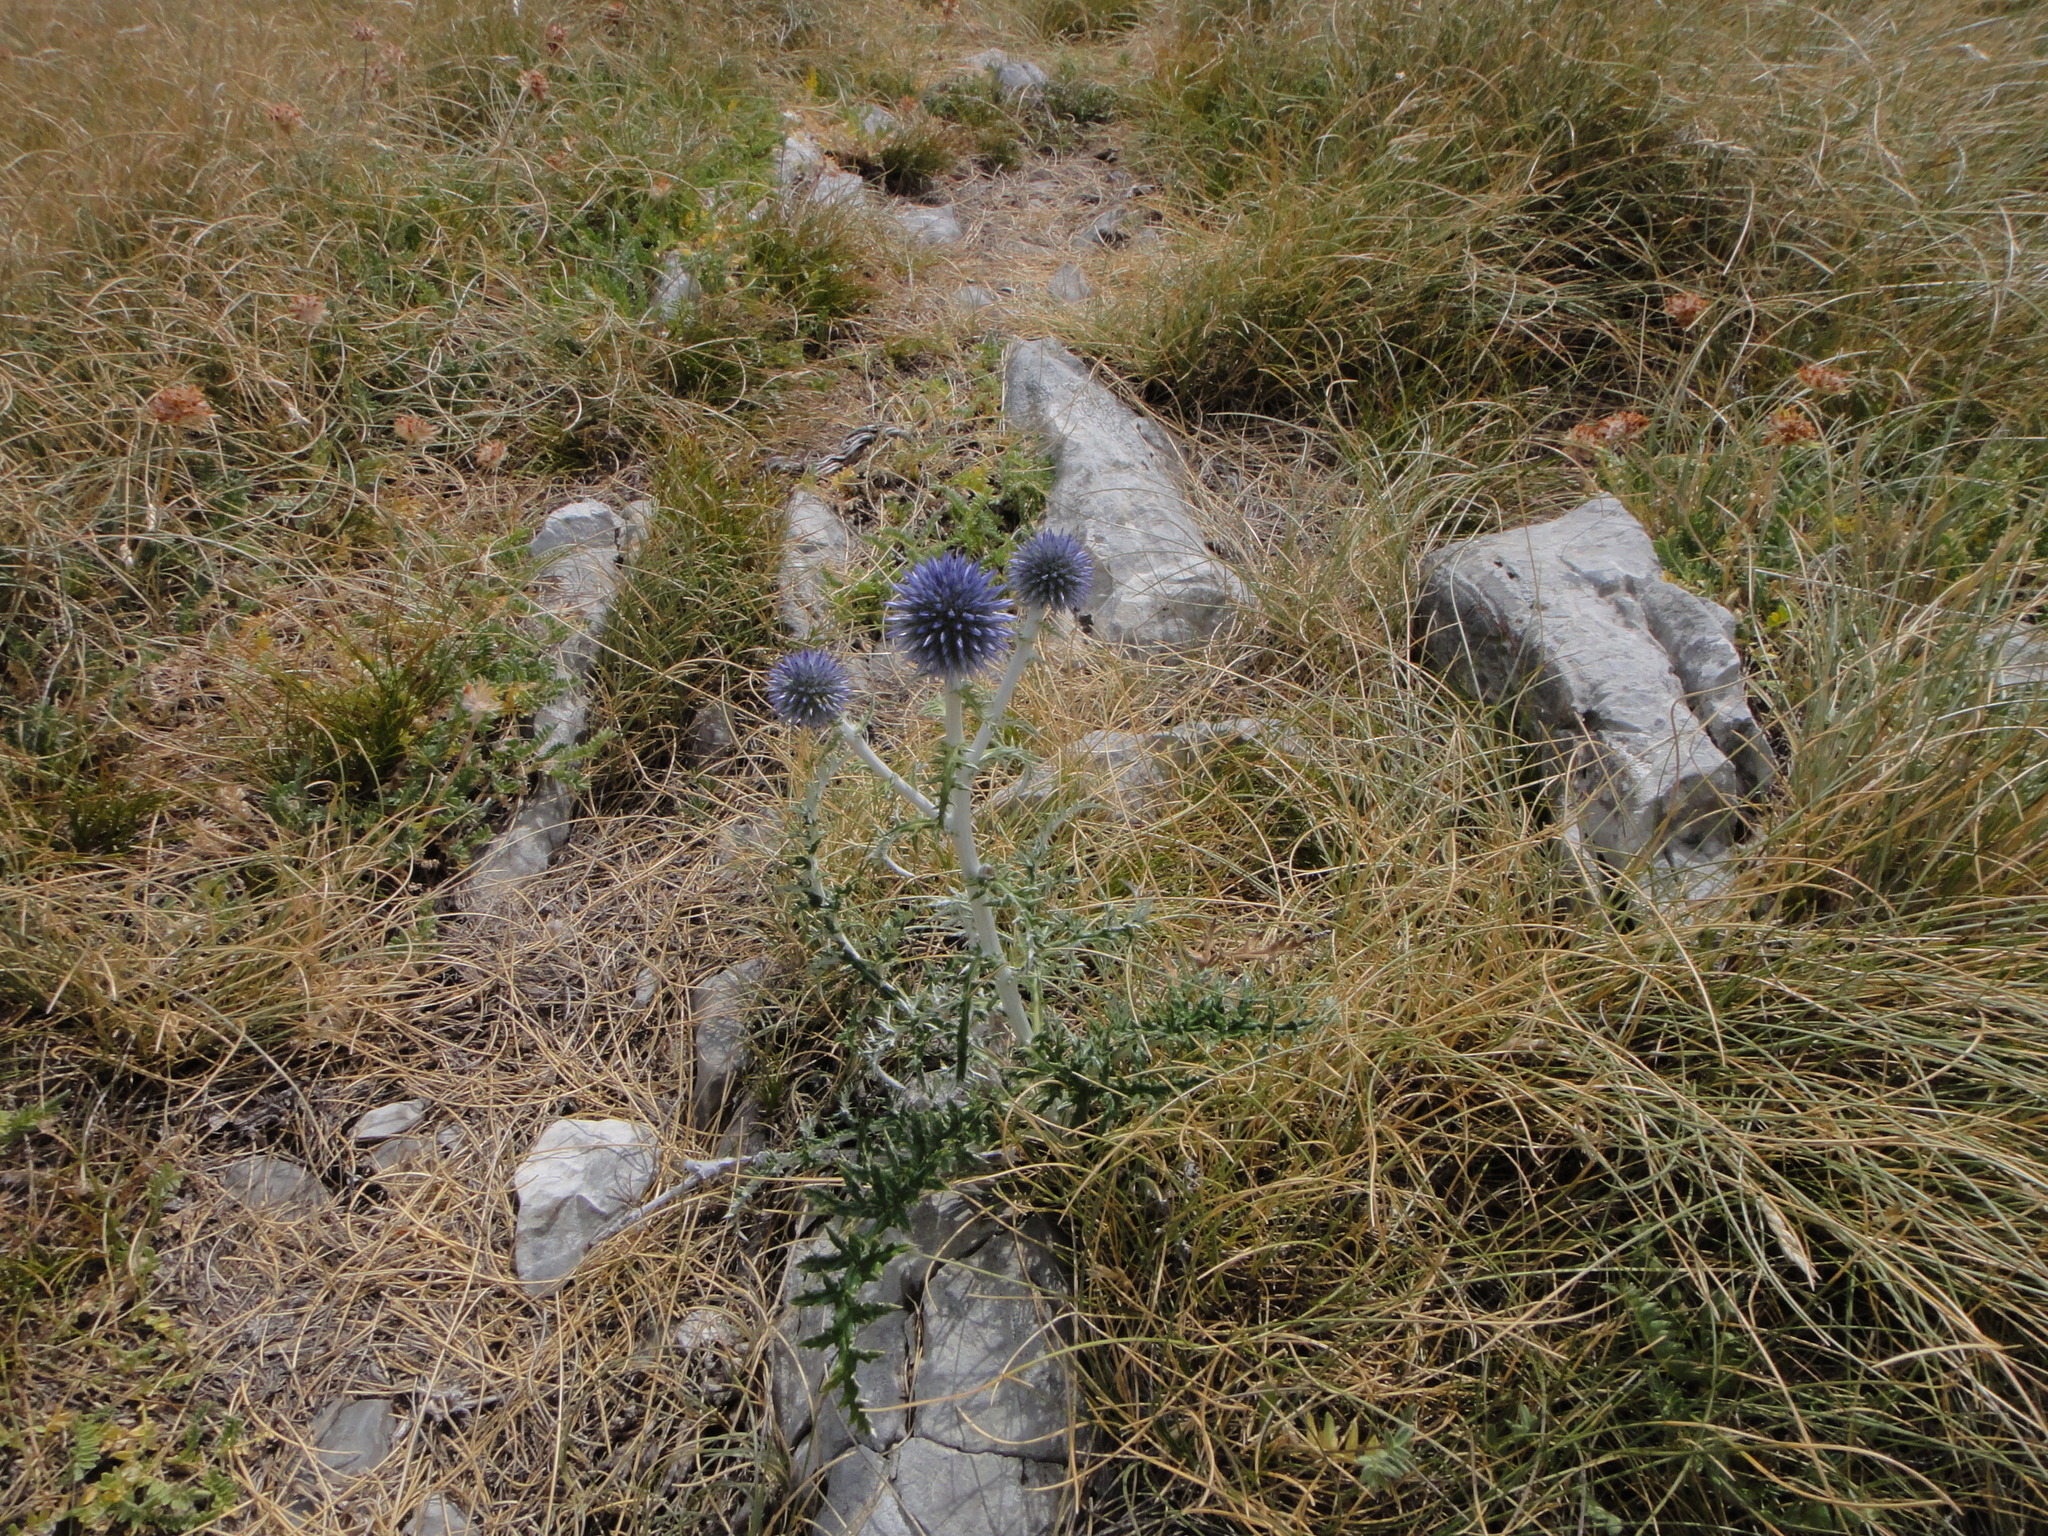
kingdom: Plantae
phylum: Tracheophyta
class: Magnoliopsida
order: Asterales
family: Asteraceae
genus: Echinops
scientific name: Echinops ritro
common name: Globe thistle
